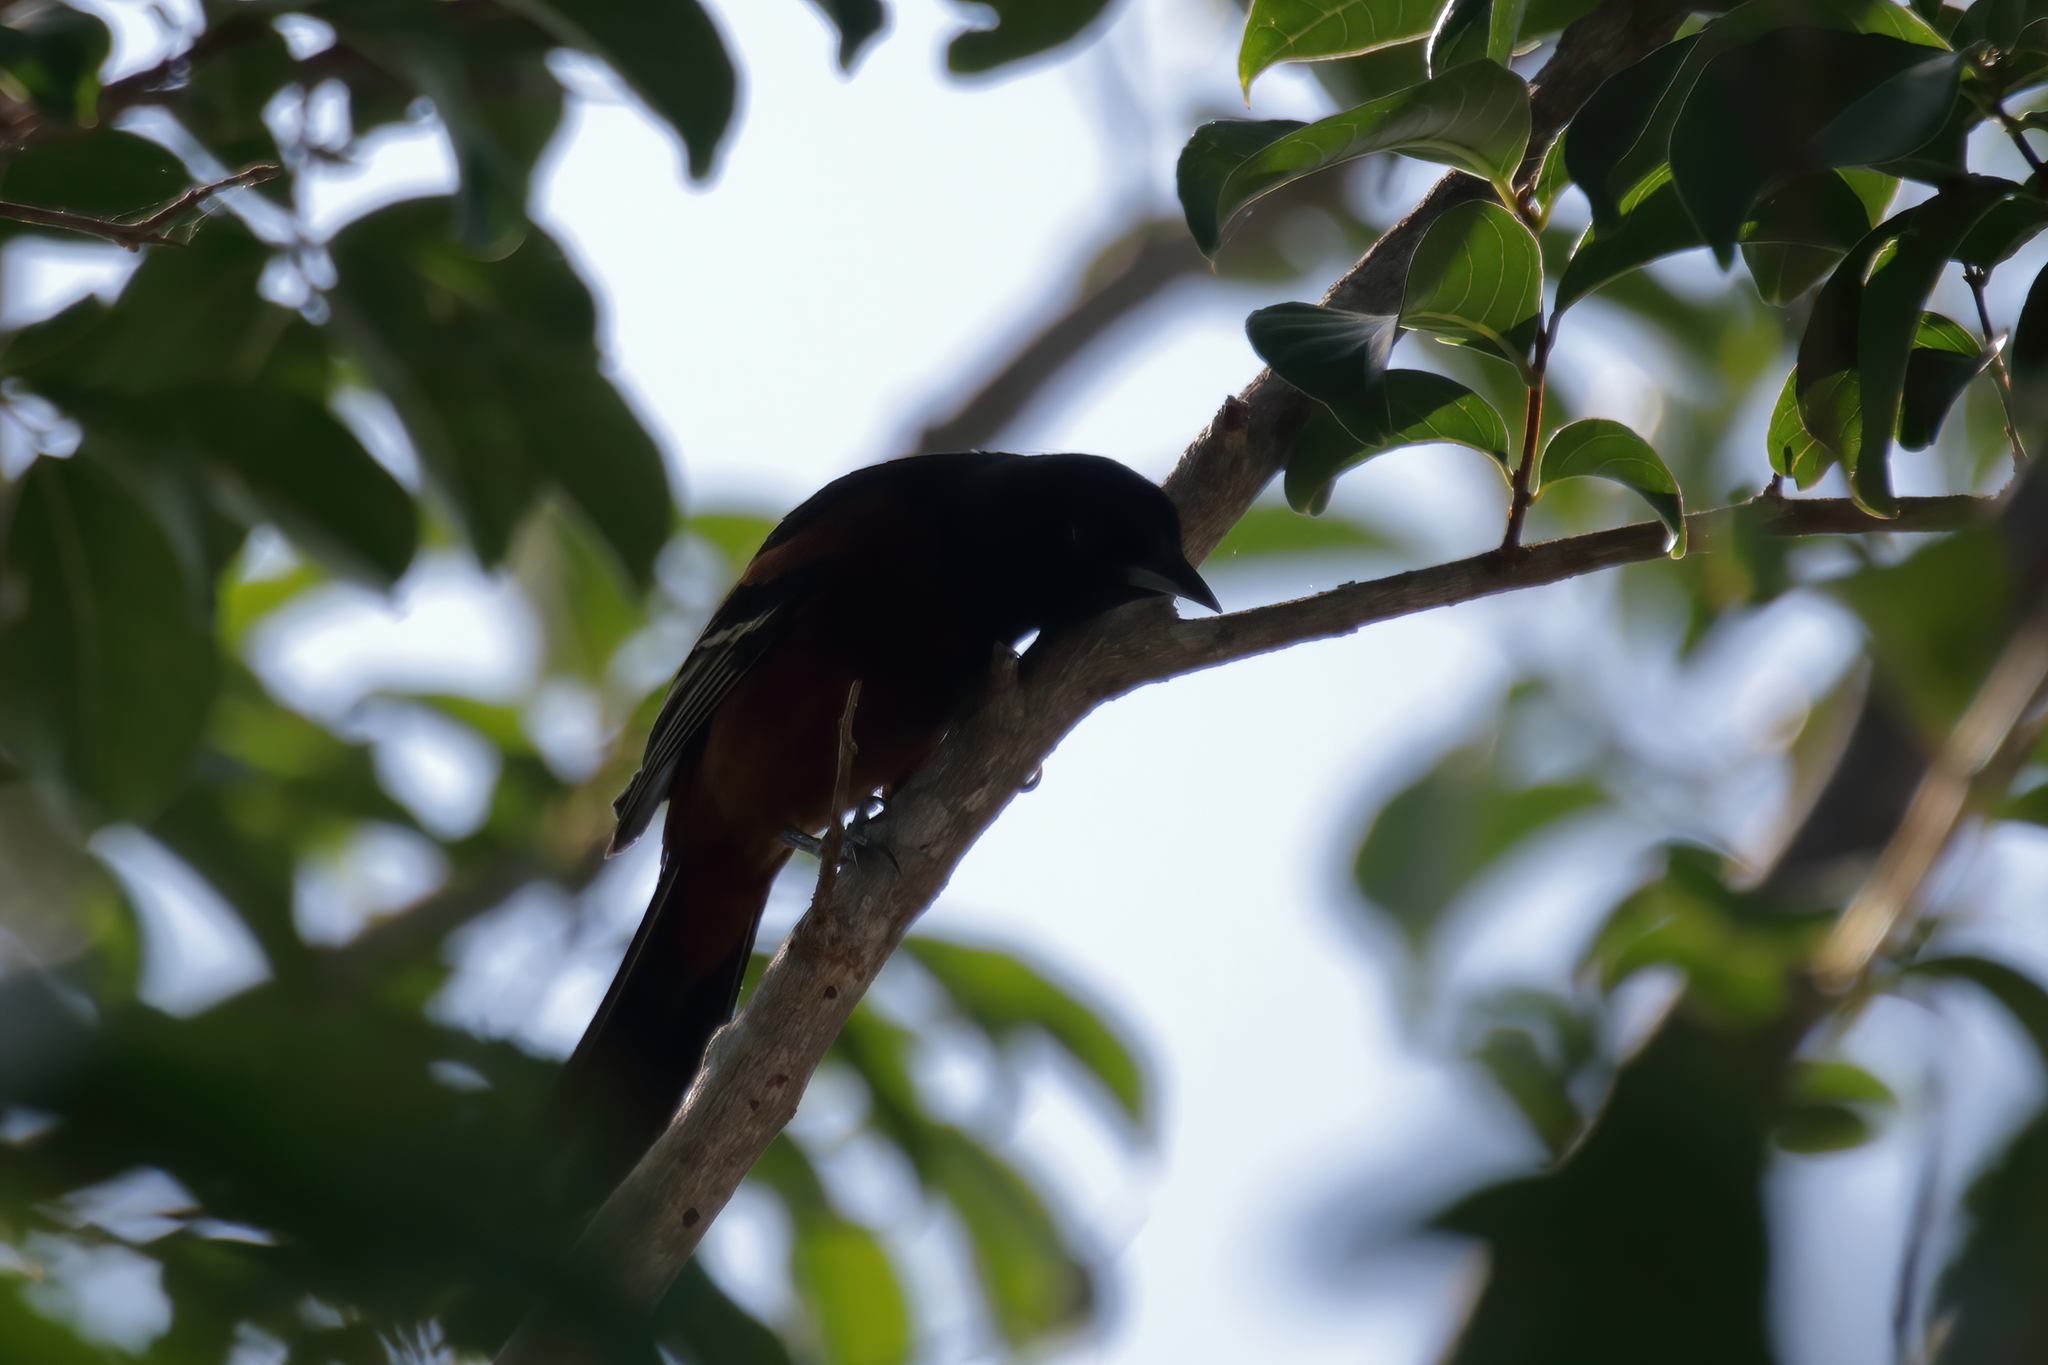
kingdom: Animalia
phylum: Chordata
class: Aves
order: Passeriformes
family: Icteridae
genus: Icterus
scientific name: Icterus spurius
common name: Orchard oriole
